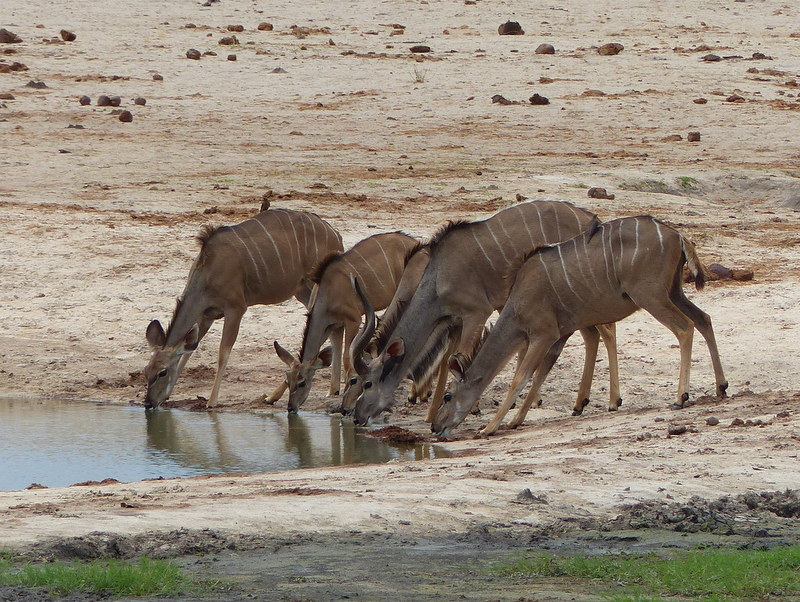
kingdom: Animalia
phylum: Chordata
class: Mammalia
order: Artiodactyla
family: Bovidae
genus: Tragelaphus
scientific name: Tragelaphus strepsiceros
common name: Greater kudu
